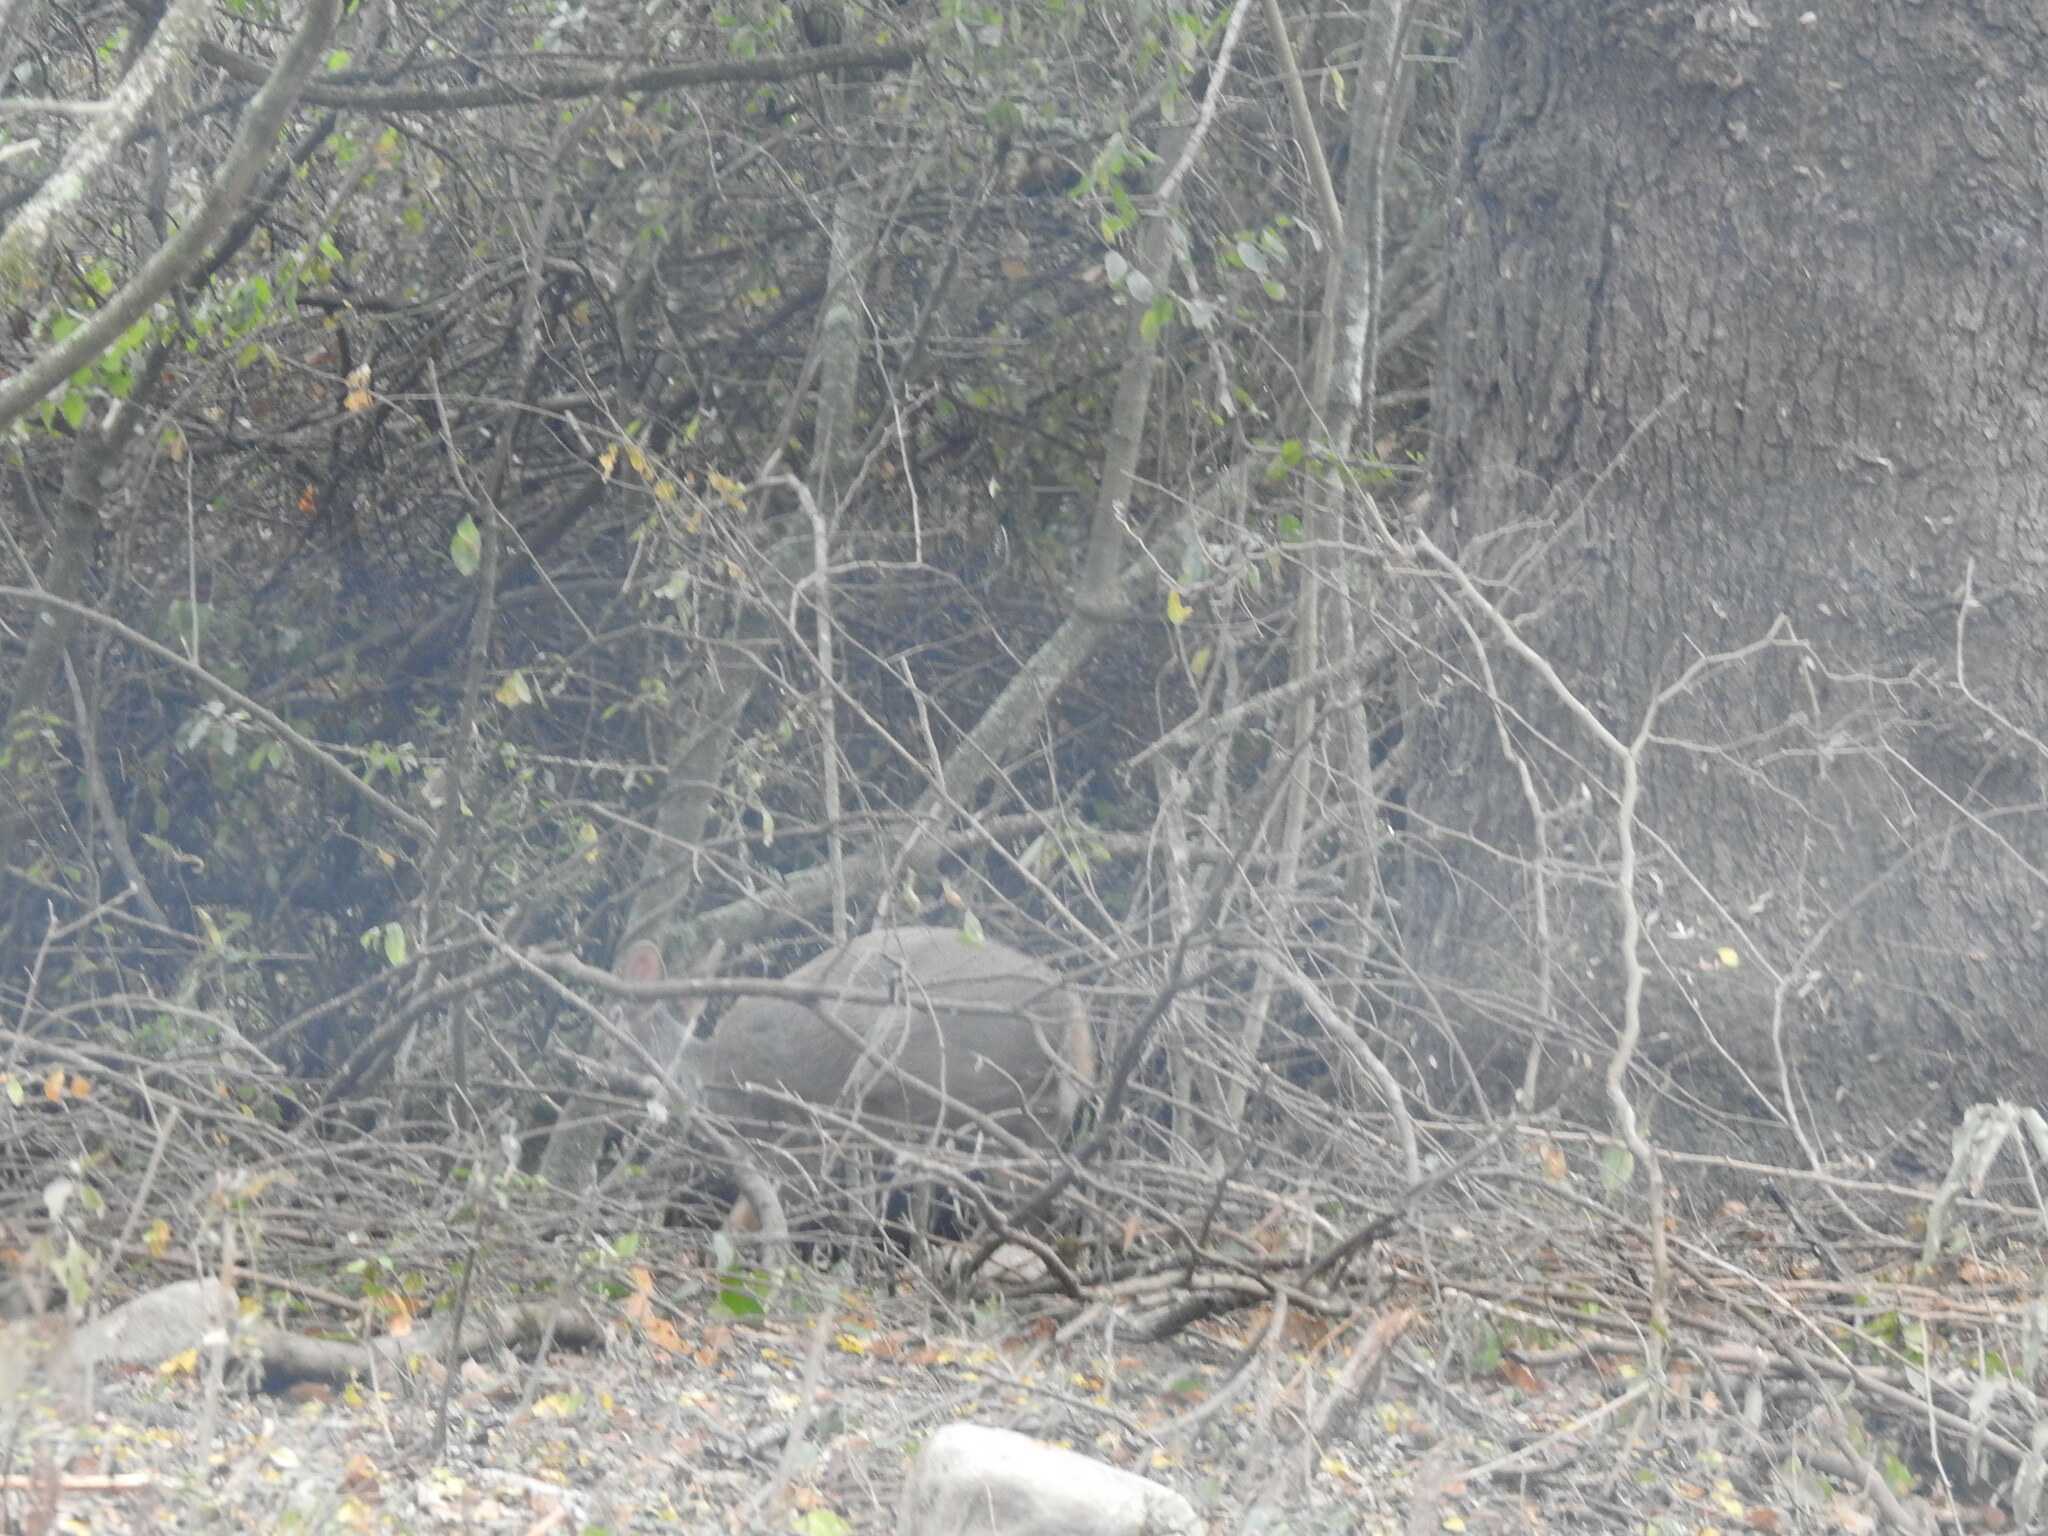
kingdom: Animalia
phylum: Chordata
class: Mammalia
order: Artiodactyla
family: Cervidae
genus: Mazama
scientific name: Mazama gouazoubira
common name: Gray brocket
